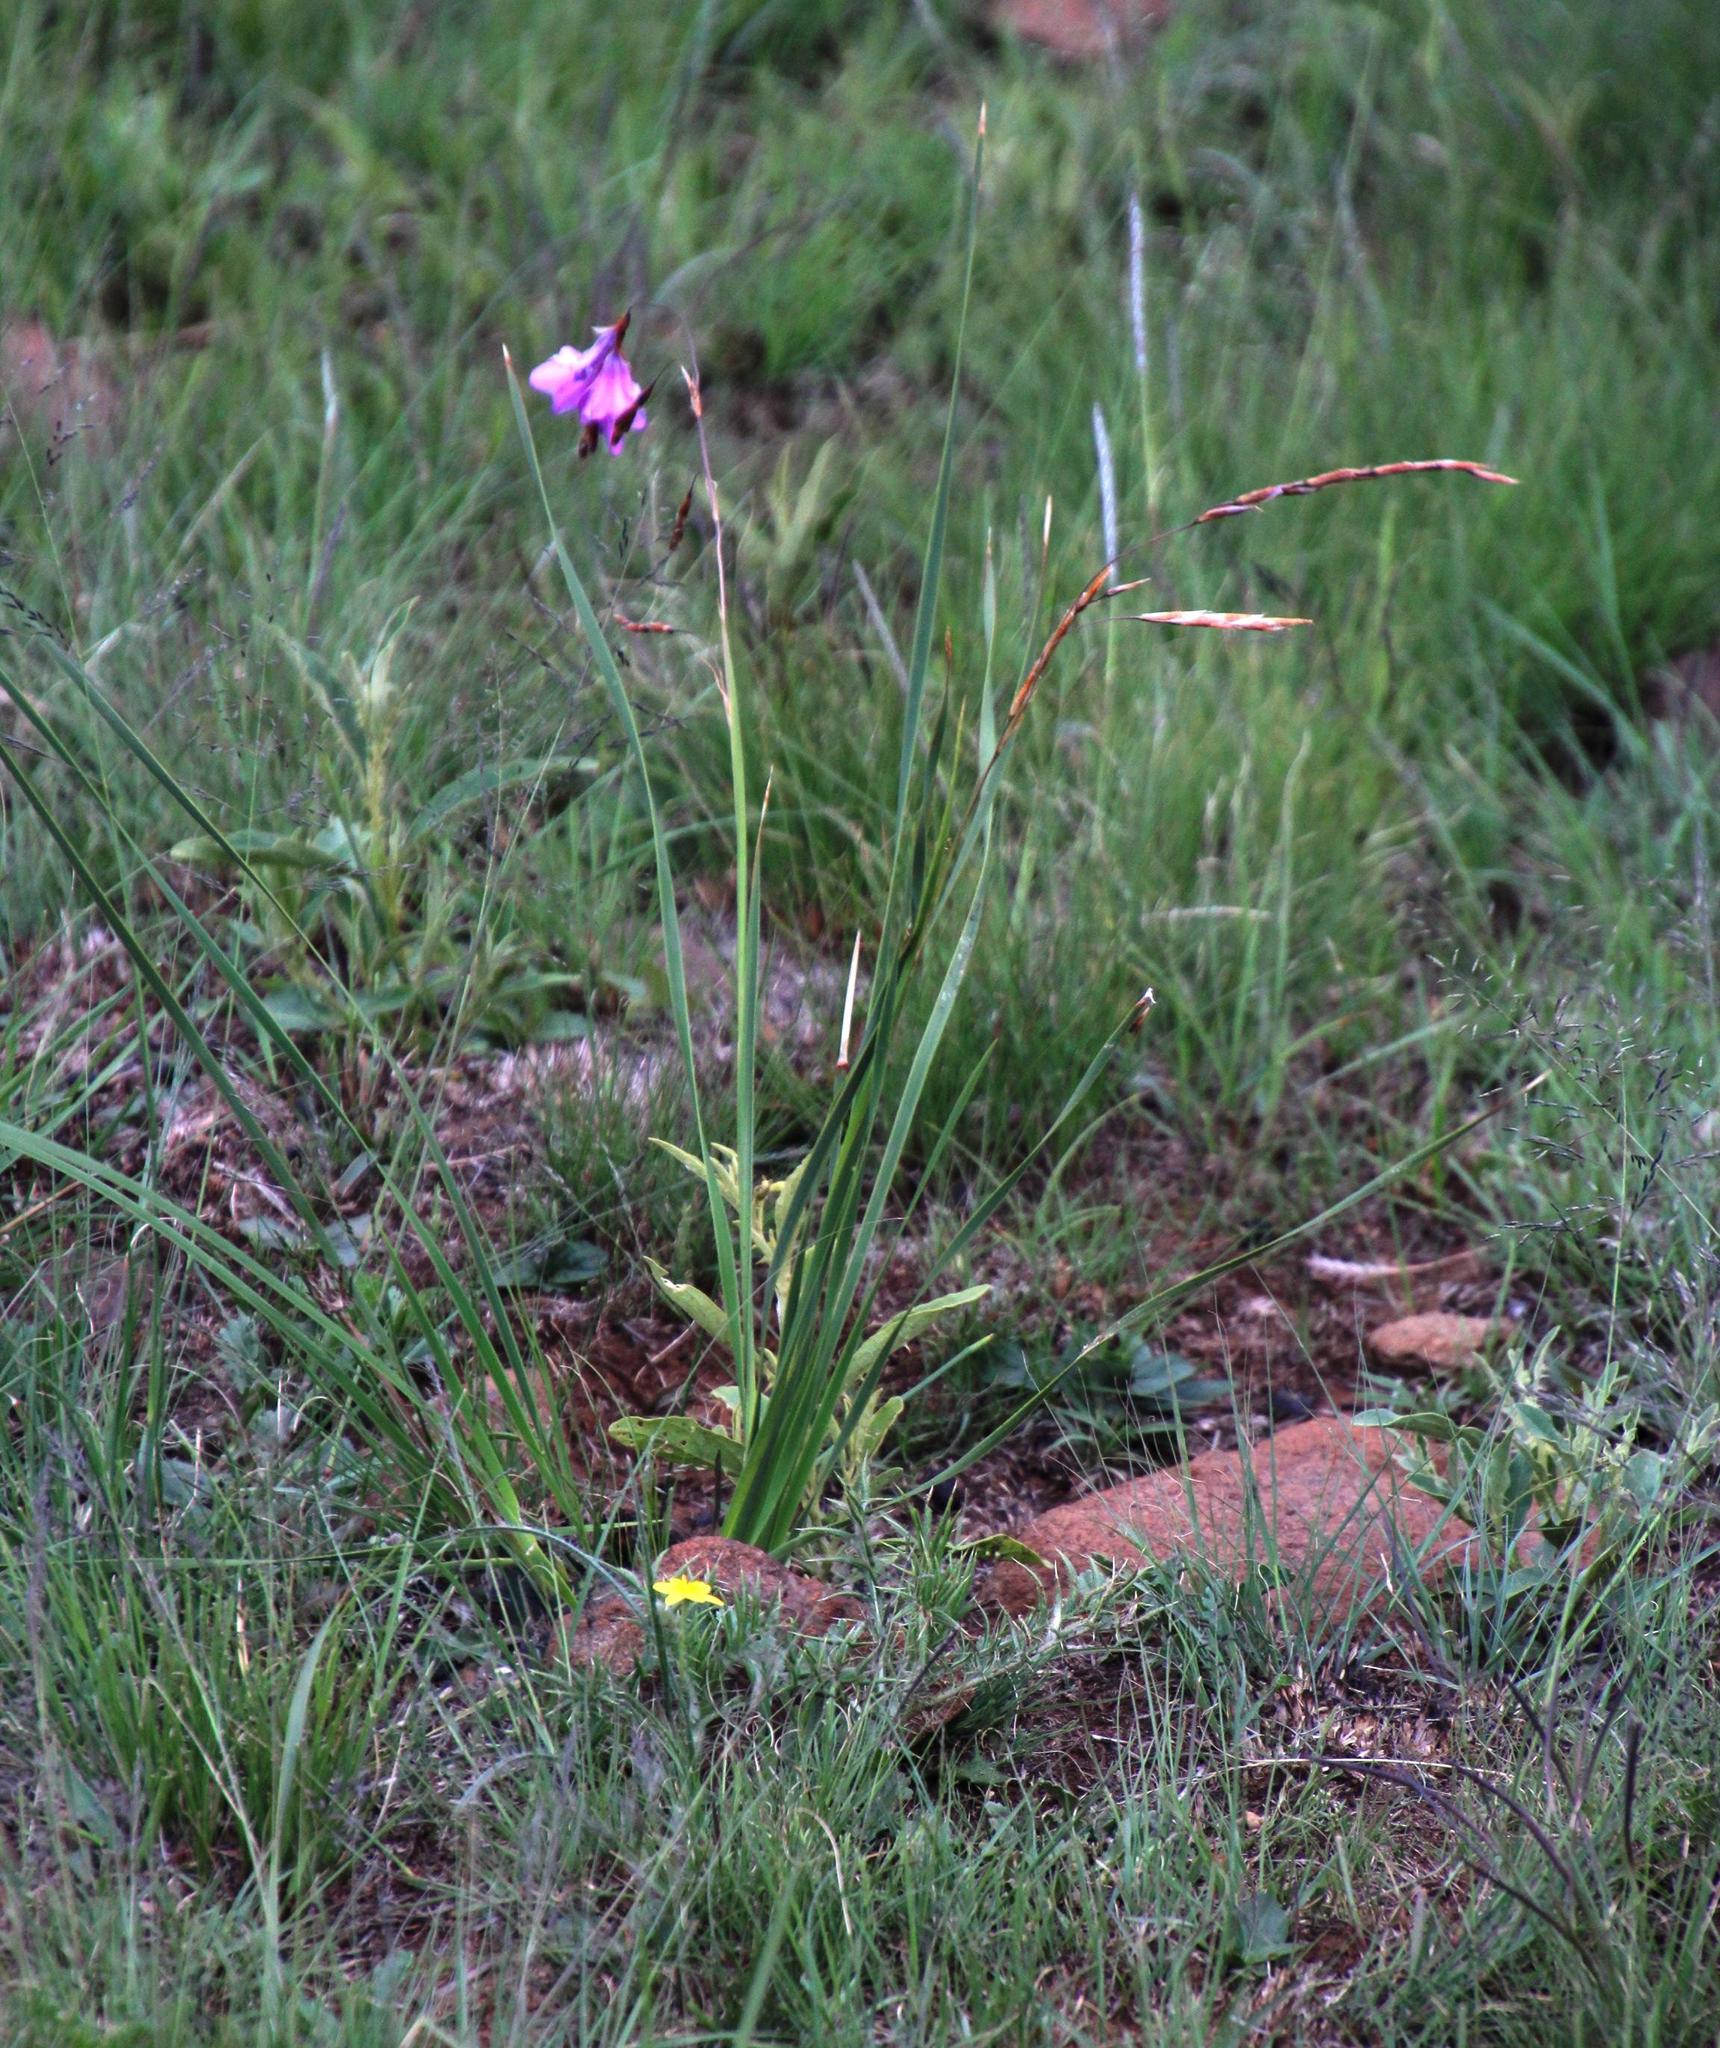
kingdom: Plantae
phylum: Tracheophyta
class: Liliopsida
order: Asparagales
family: Iridaceae
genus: Dierama
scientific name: Dierama medium
